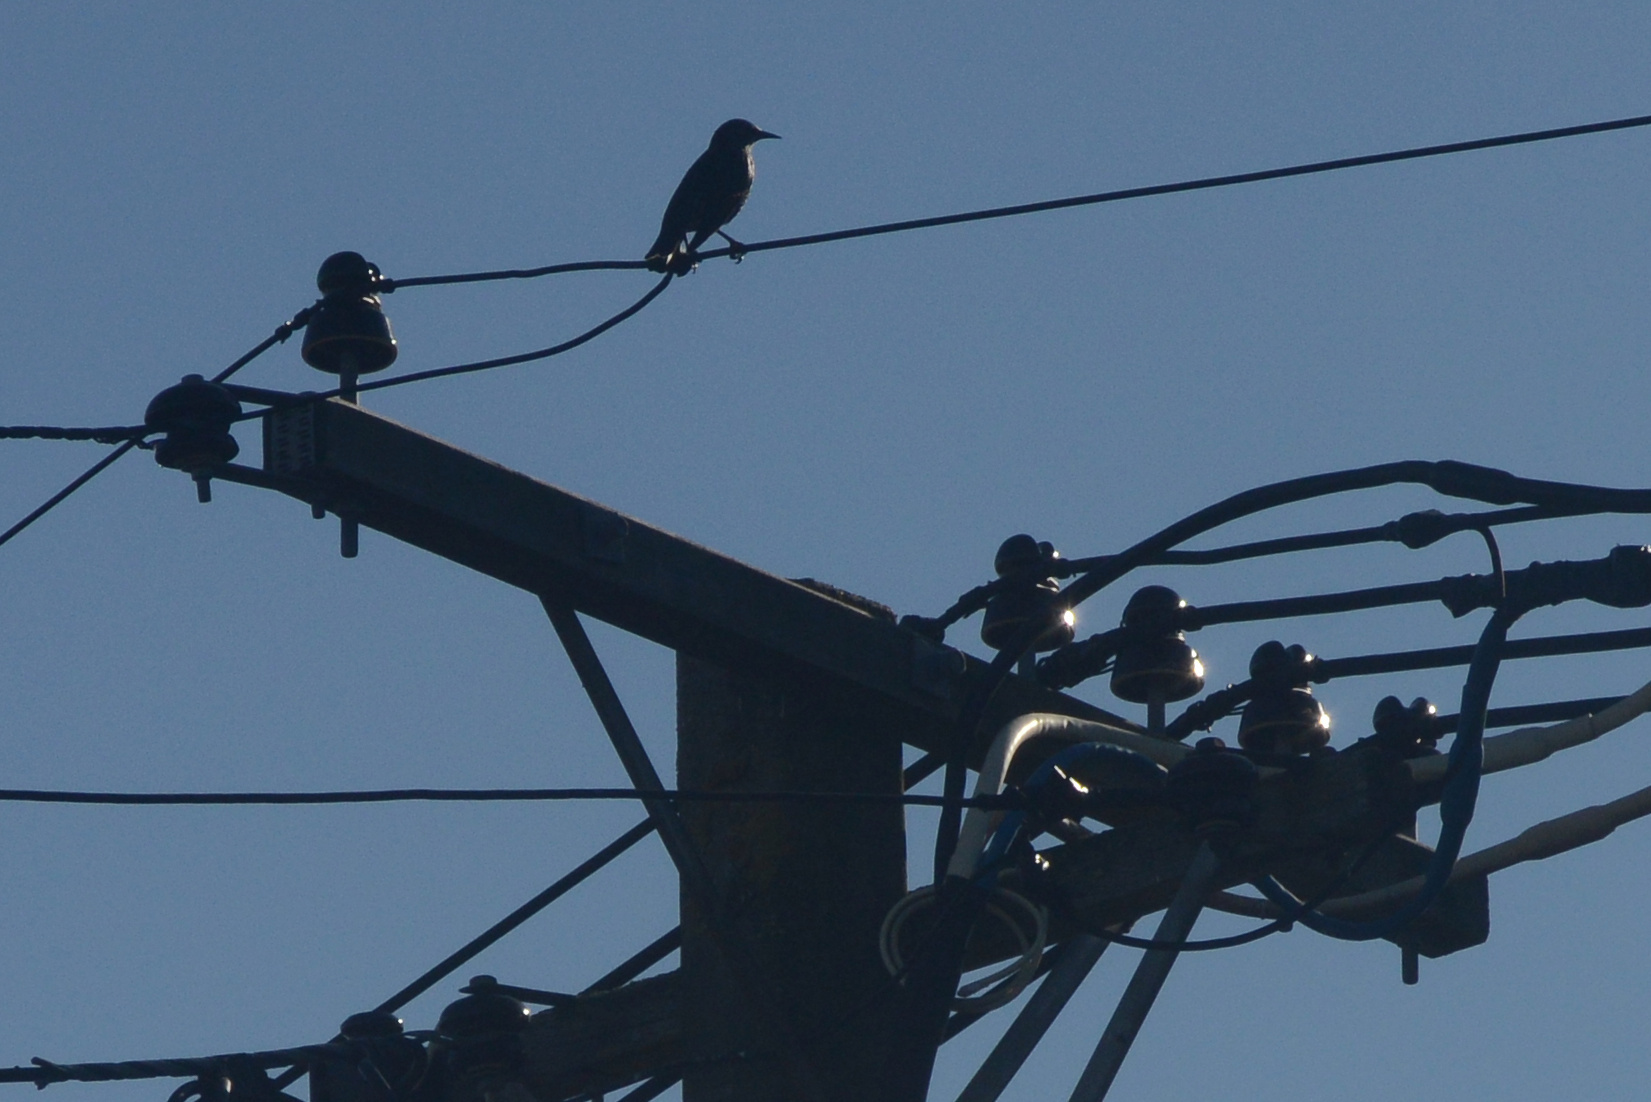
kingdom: Animalia
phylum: Chordata
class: Aves
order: Passeriformes
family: Sturnidae
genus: Sturnus
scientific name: Sturnus vulgaris
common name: Common starling
